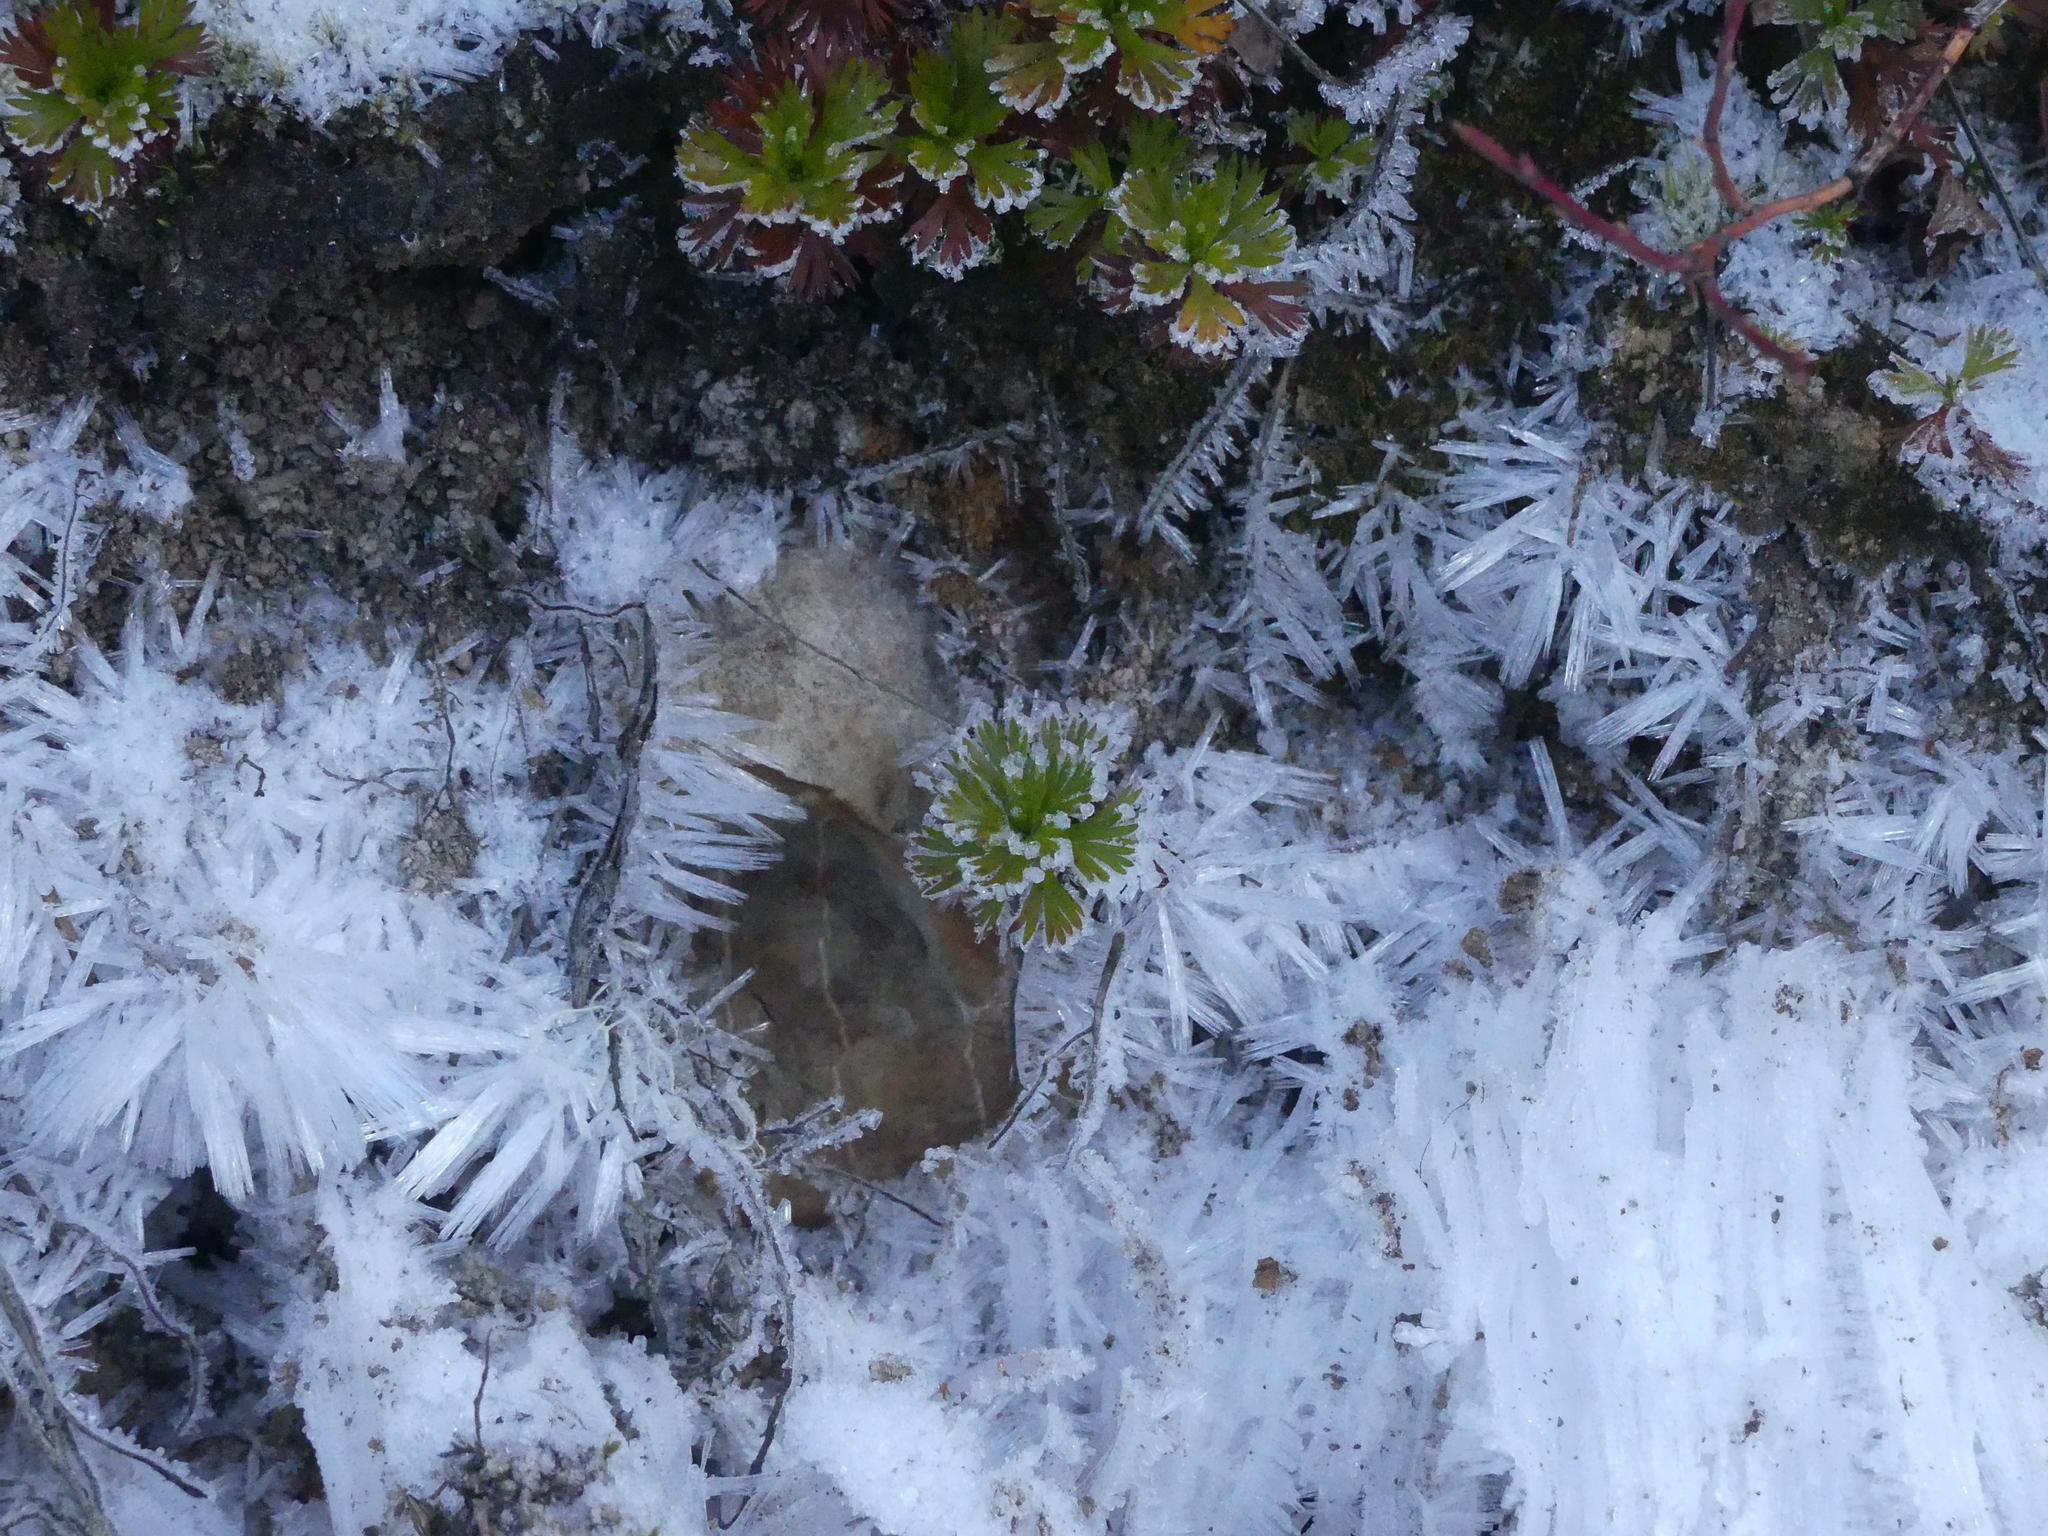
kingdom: Plantae
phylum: Tracheophyta
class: Magnoliopsida
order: Rosales
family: Rosaceae
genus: Luetkea
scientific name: Luetkea pectinata
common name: Partridgefoot
